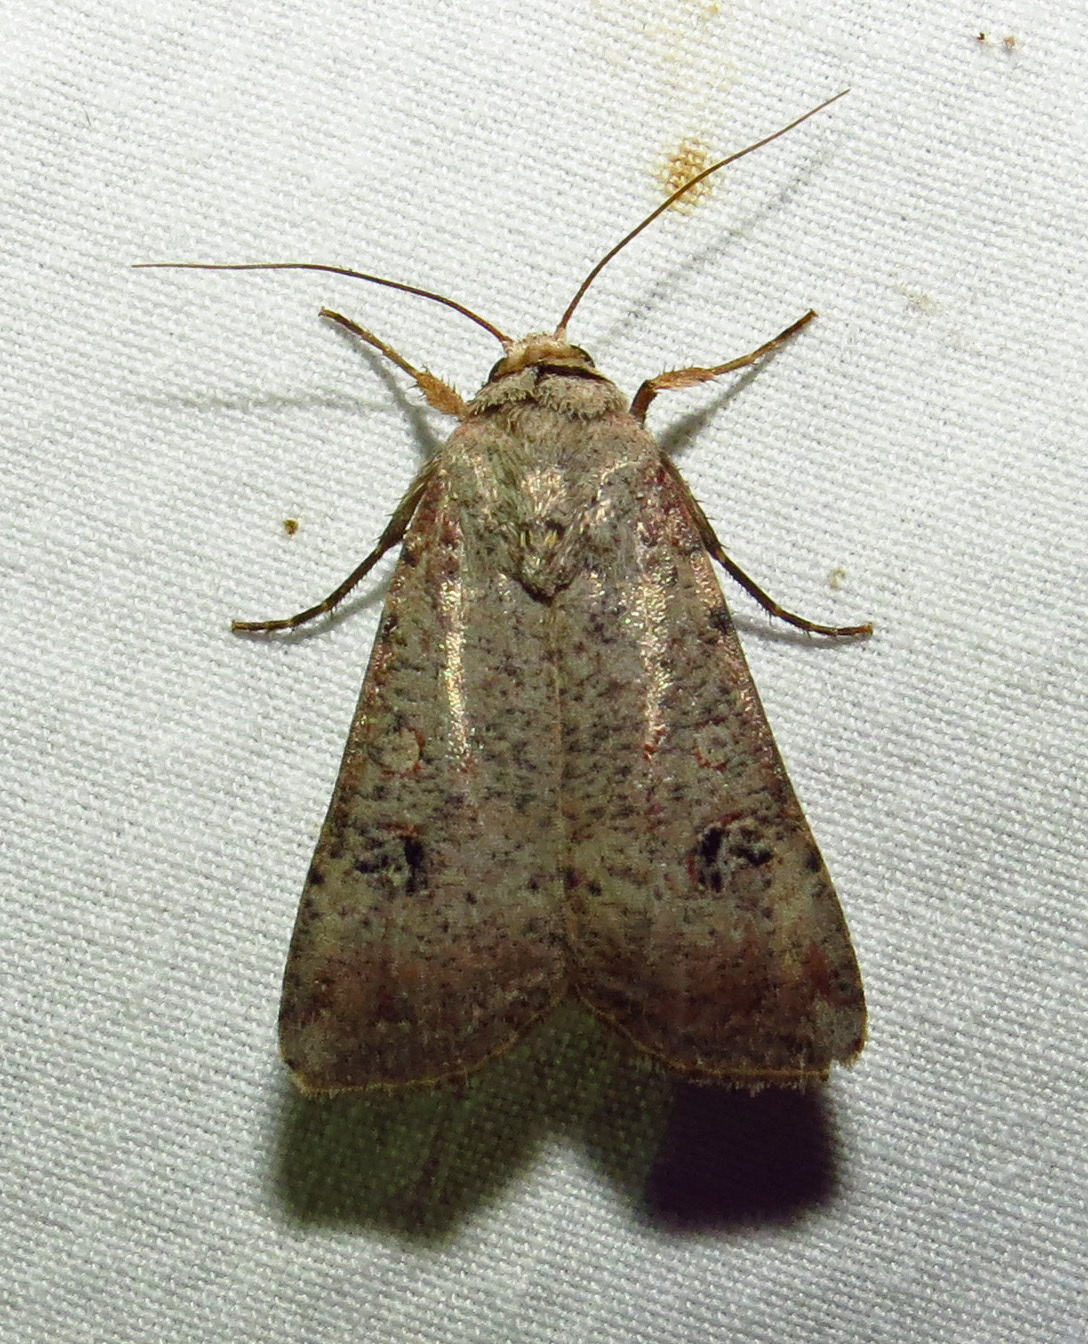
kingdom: Animalia
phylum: Arthropoda
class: Insecta
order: Lepidoptera
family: Noctuidae
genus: Anicla
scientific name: Anicla infecta
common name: Green cutworm
